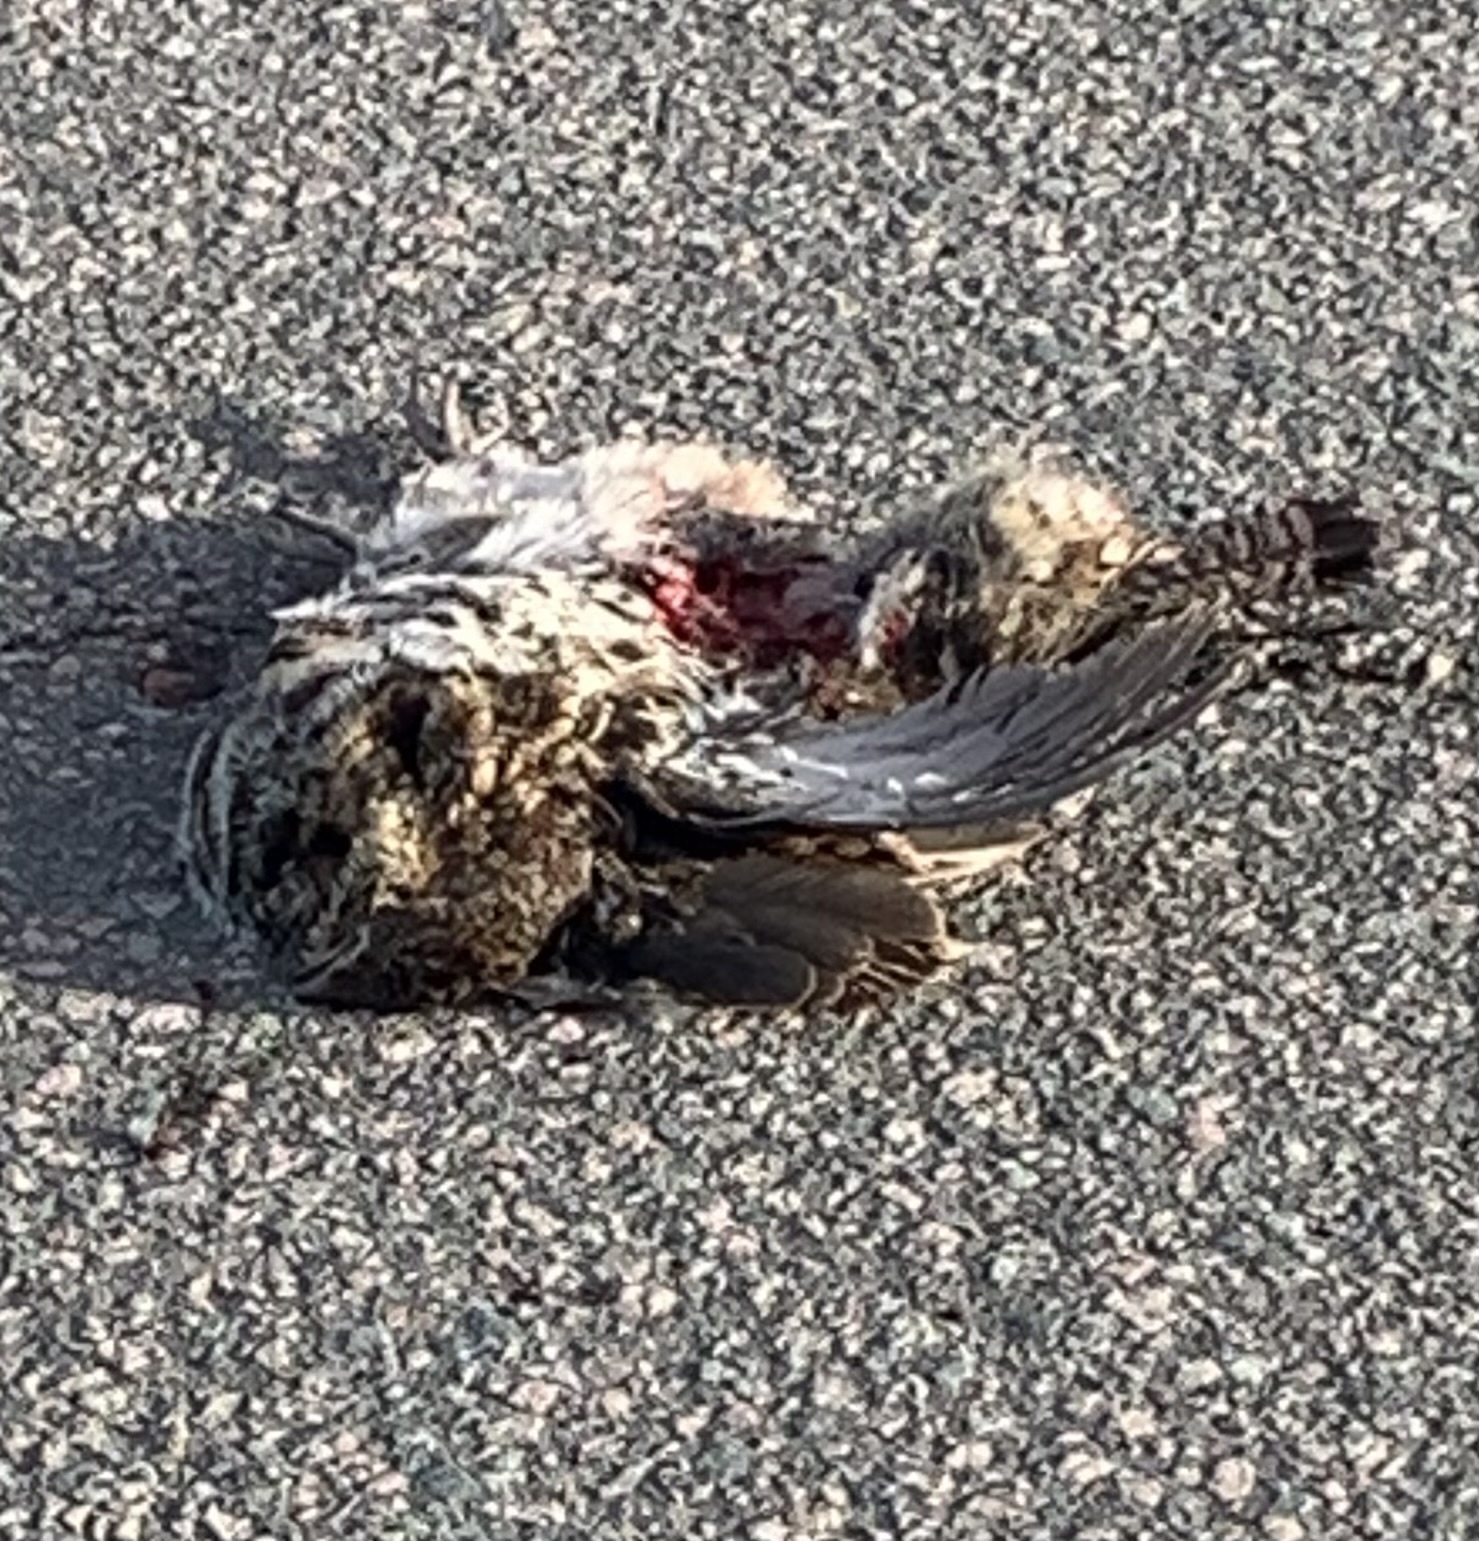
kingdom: Animalia
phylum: Chordata
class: Aves
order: Galliformes
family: Phasianidae
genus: Bonasa
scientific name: Bonasa umbellus
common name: Ruffed grouse
